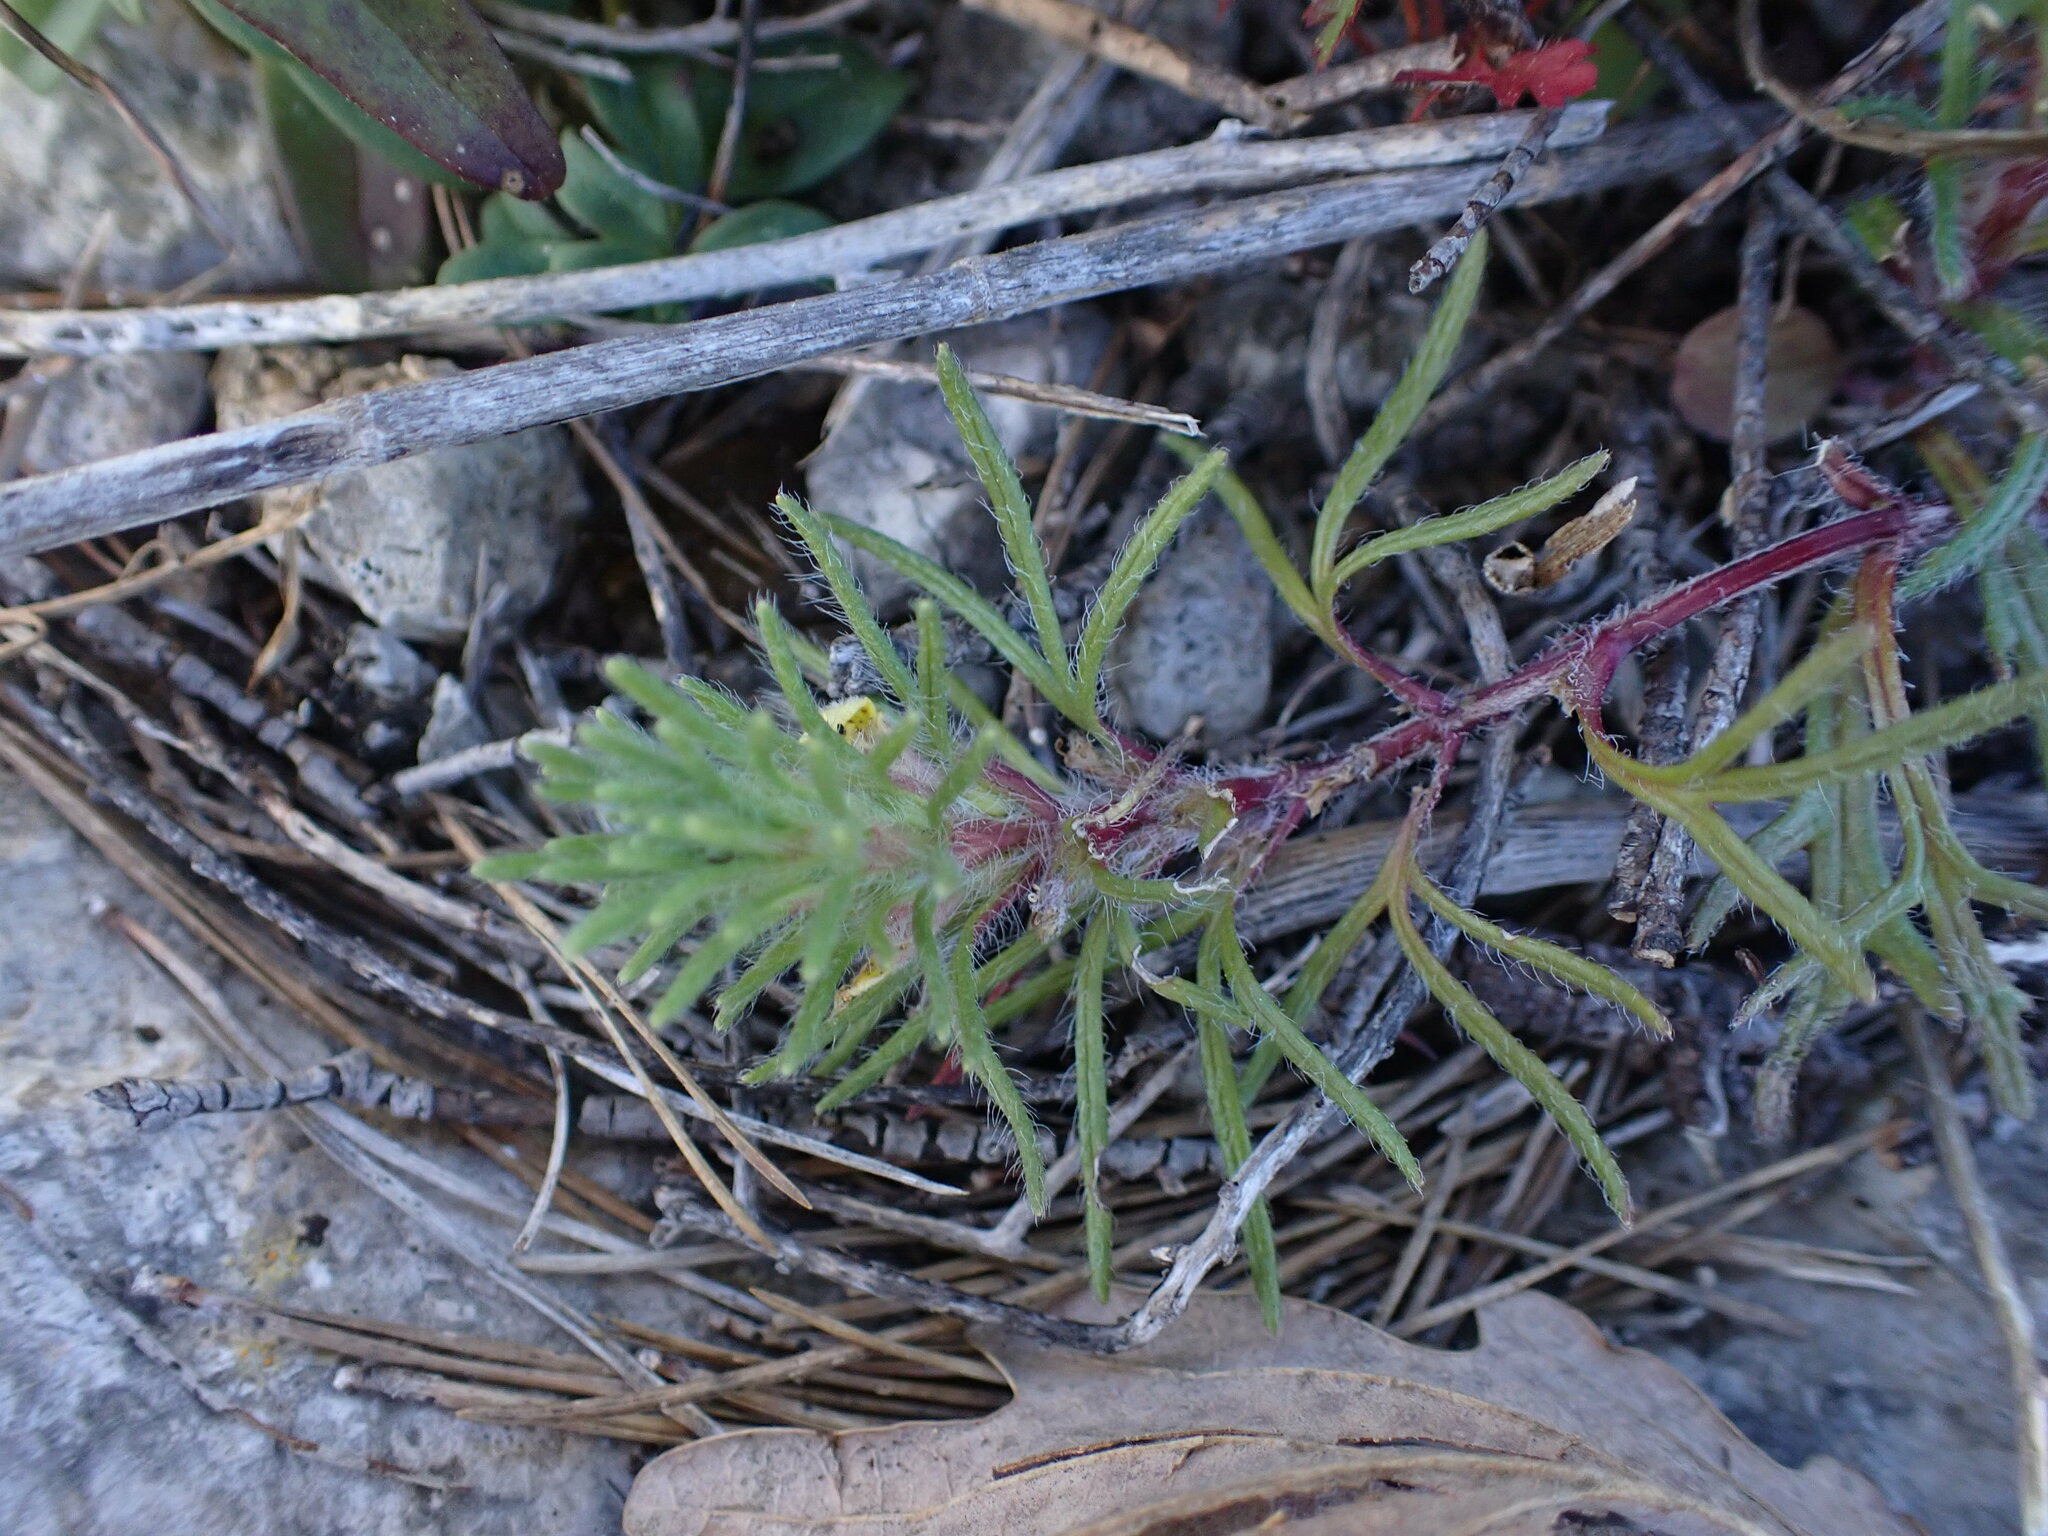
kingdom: Plantae
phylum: Tracheophyta
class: Magnoliopsida
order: Lamiales
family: Lamiaceae
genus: Ajuga
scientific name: Ajuga chamaepitys
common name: Ground-pine
